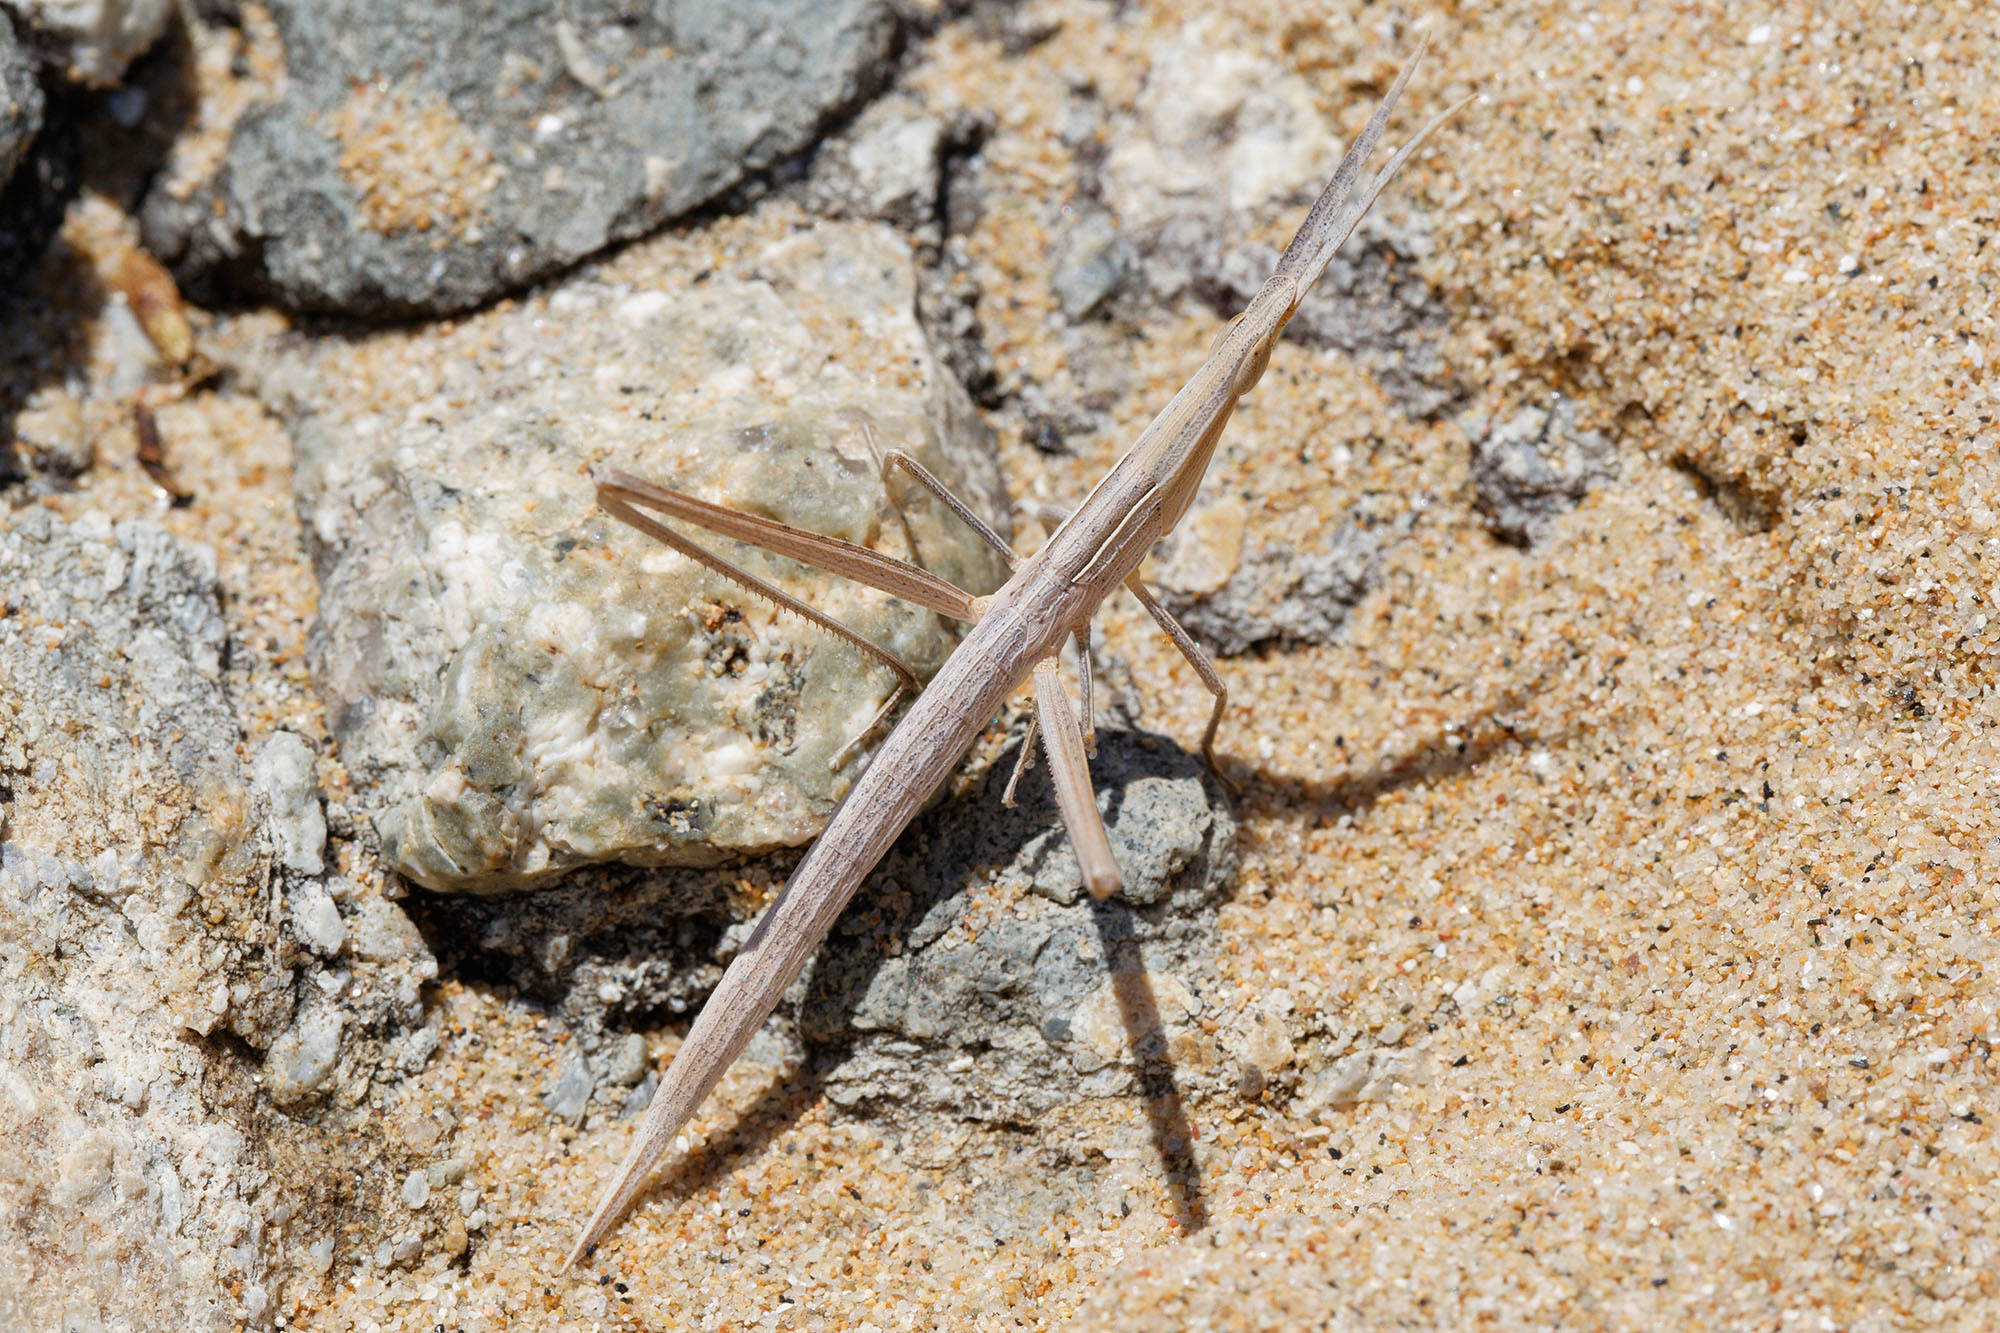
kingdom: Animalia
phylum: Arthropoda
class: Insecta
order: Orthoptera
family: Acrididae
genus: Acrida
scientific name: Acrida conica
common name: Giant green slantface
